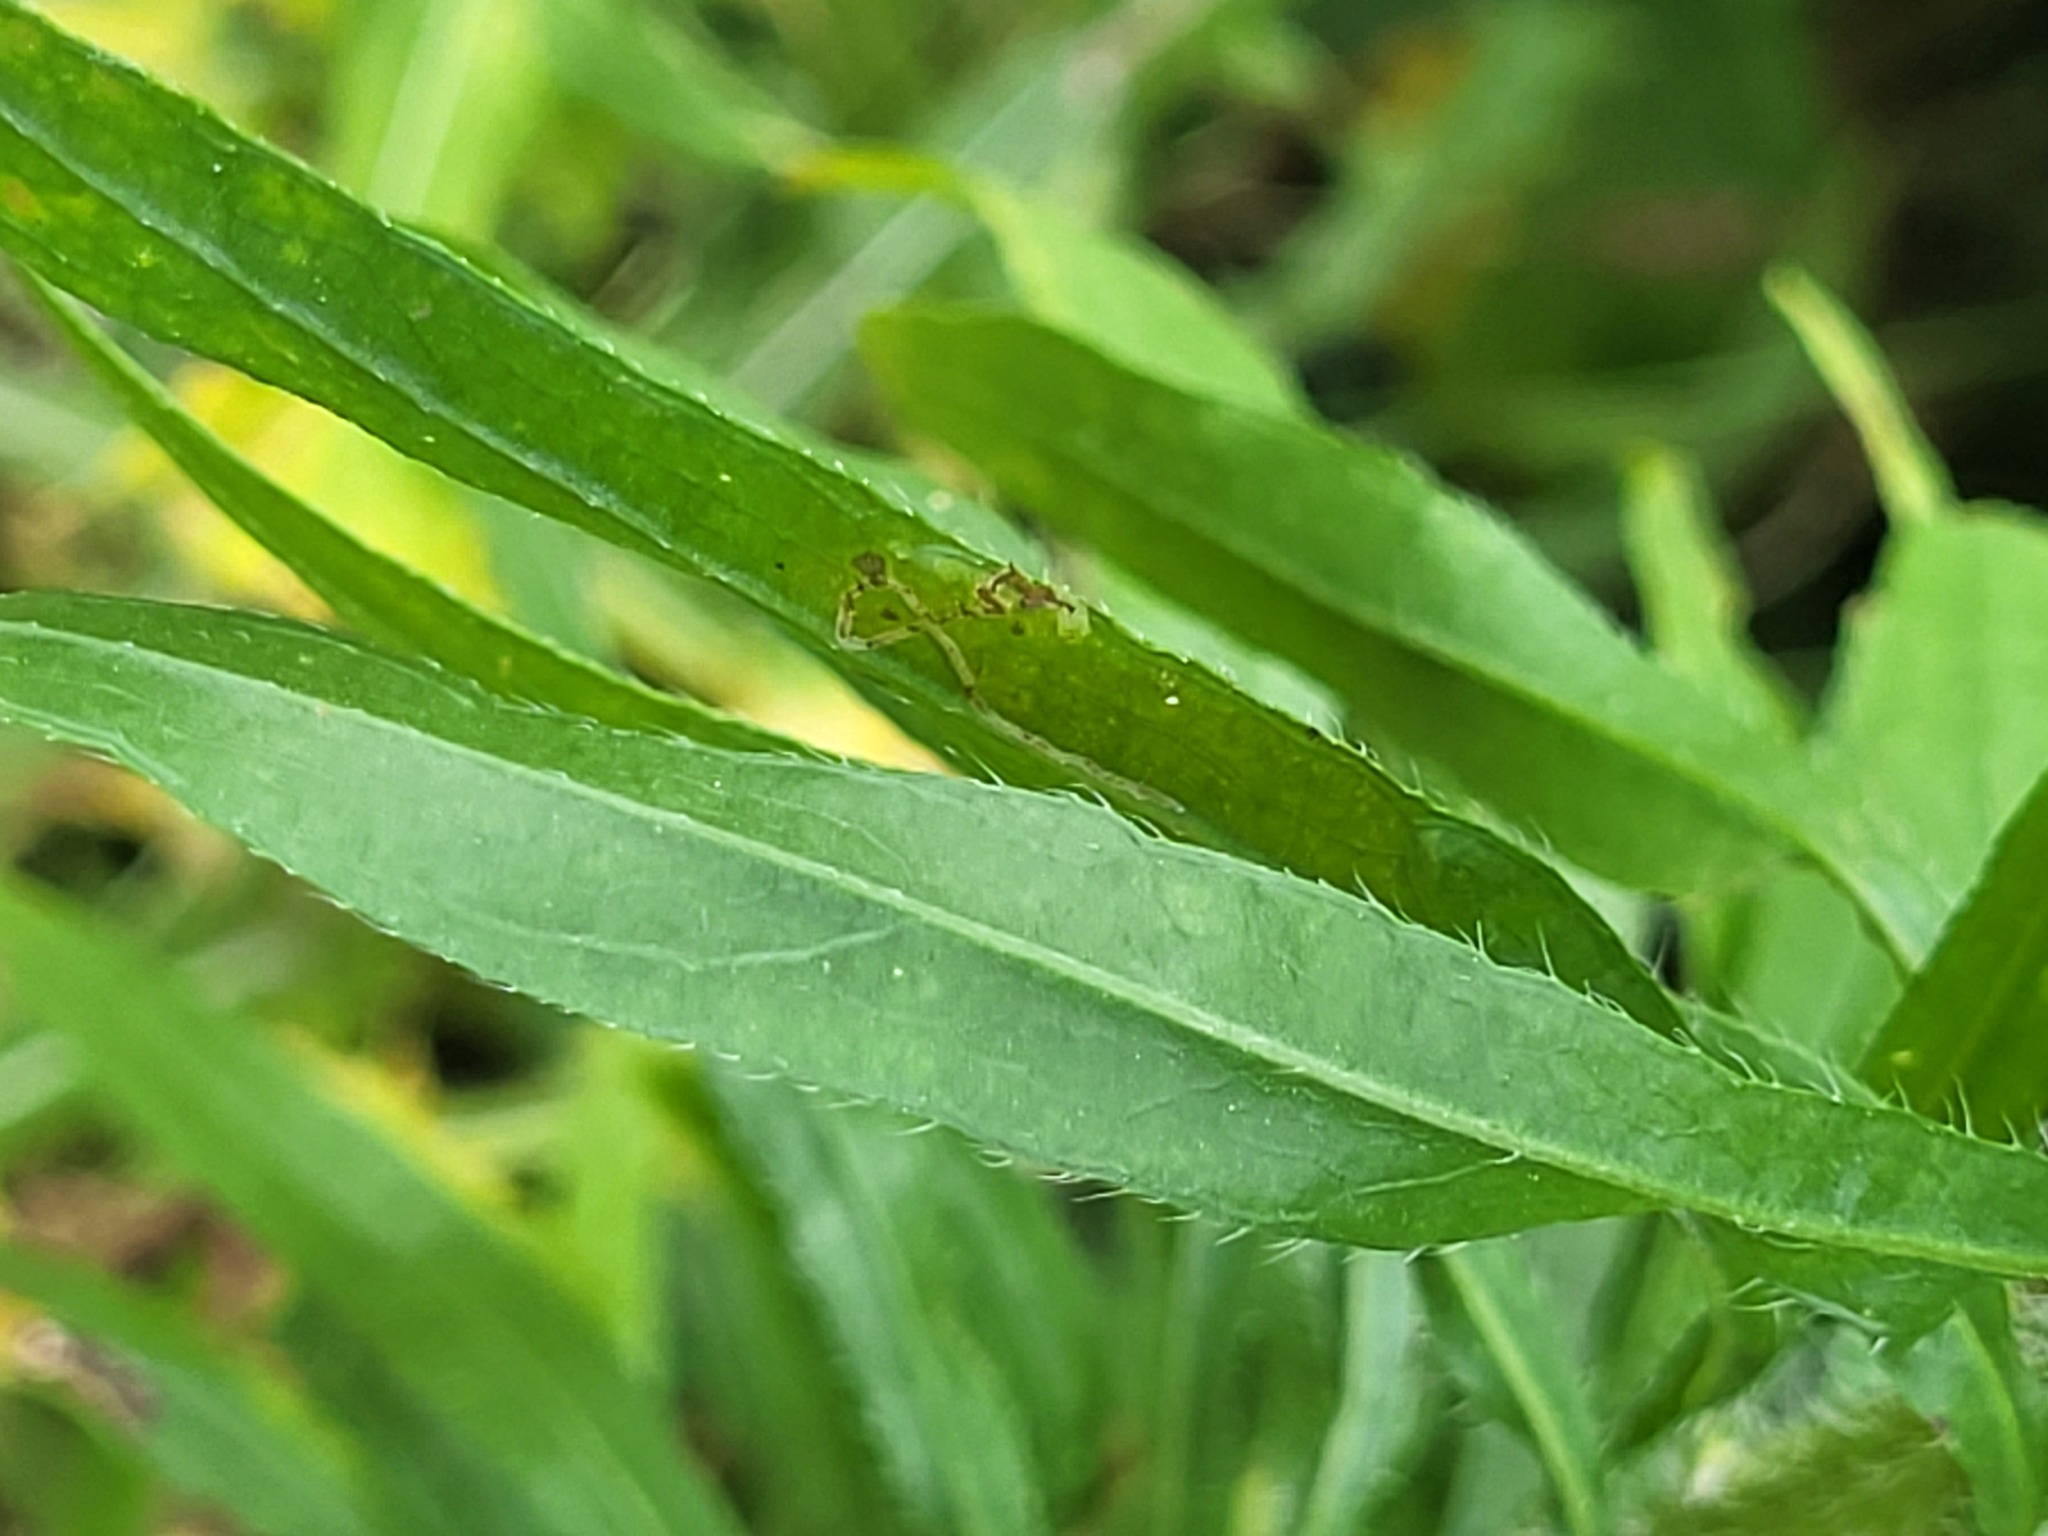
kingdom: Plantae
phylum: Tracheophyta
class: Magnoliopsida
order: Asterales
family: Asteraceae
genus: Erigeron
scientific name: Erigeron canadensis
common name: Canadian fleabane
